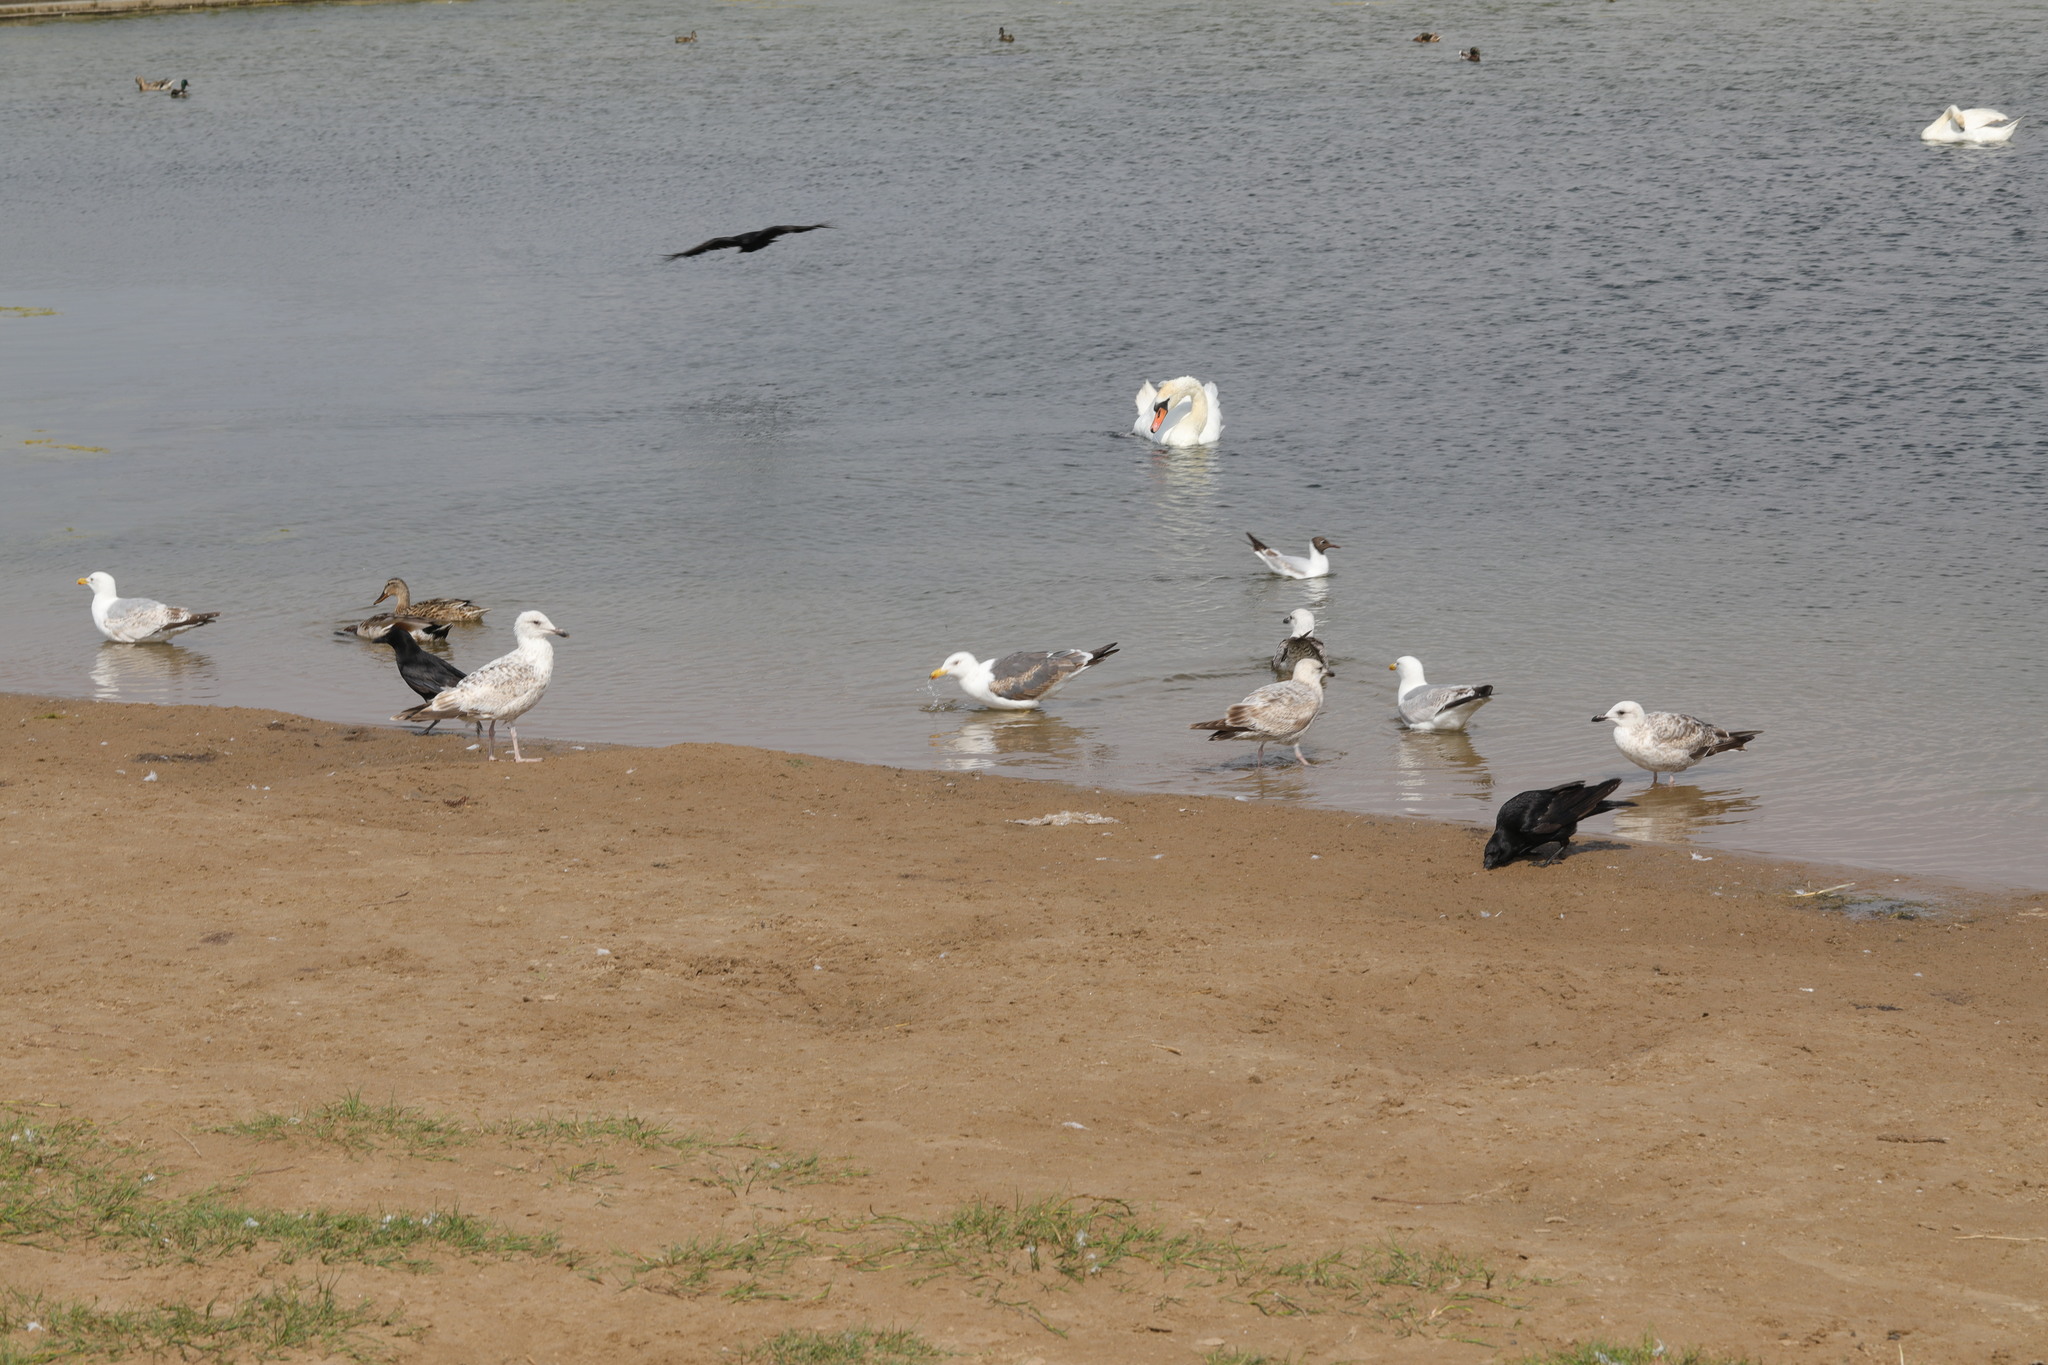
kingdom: Animalia
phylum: Chordata
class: Aves
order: Charadriiformes
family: Laridae
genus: Larus
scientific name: Larus fuscus
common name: Lesser black-backed gull
